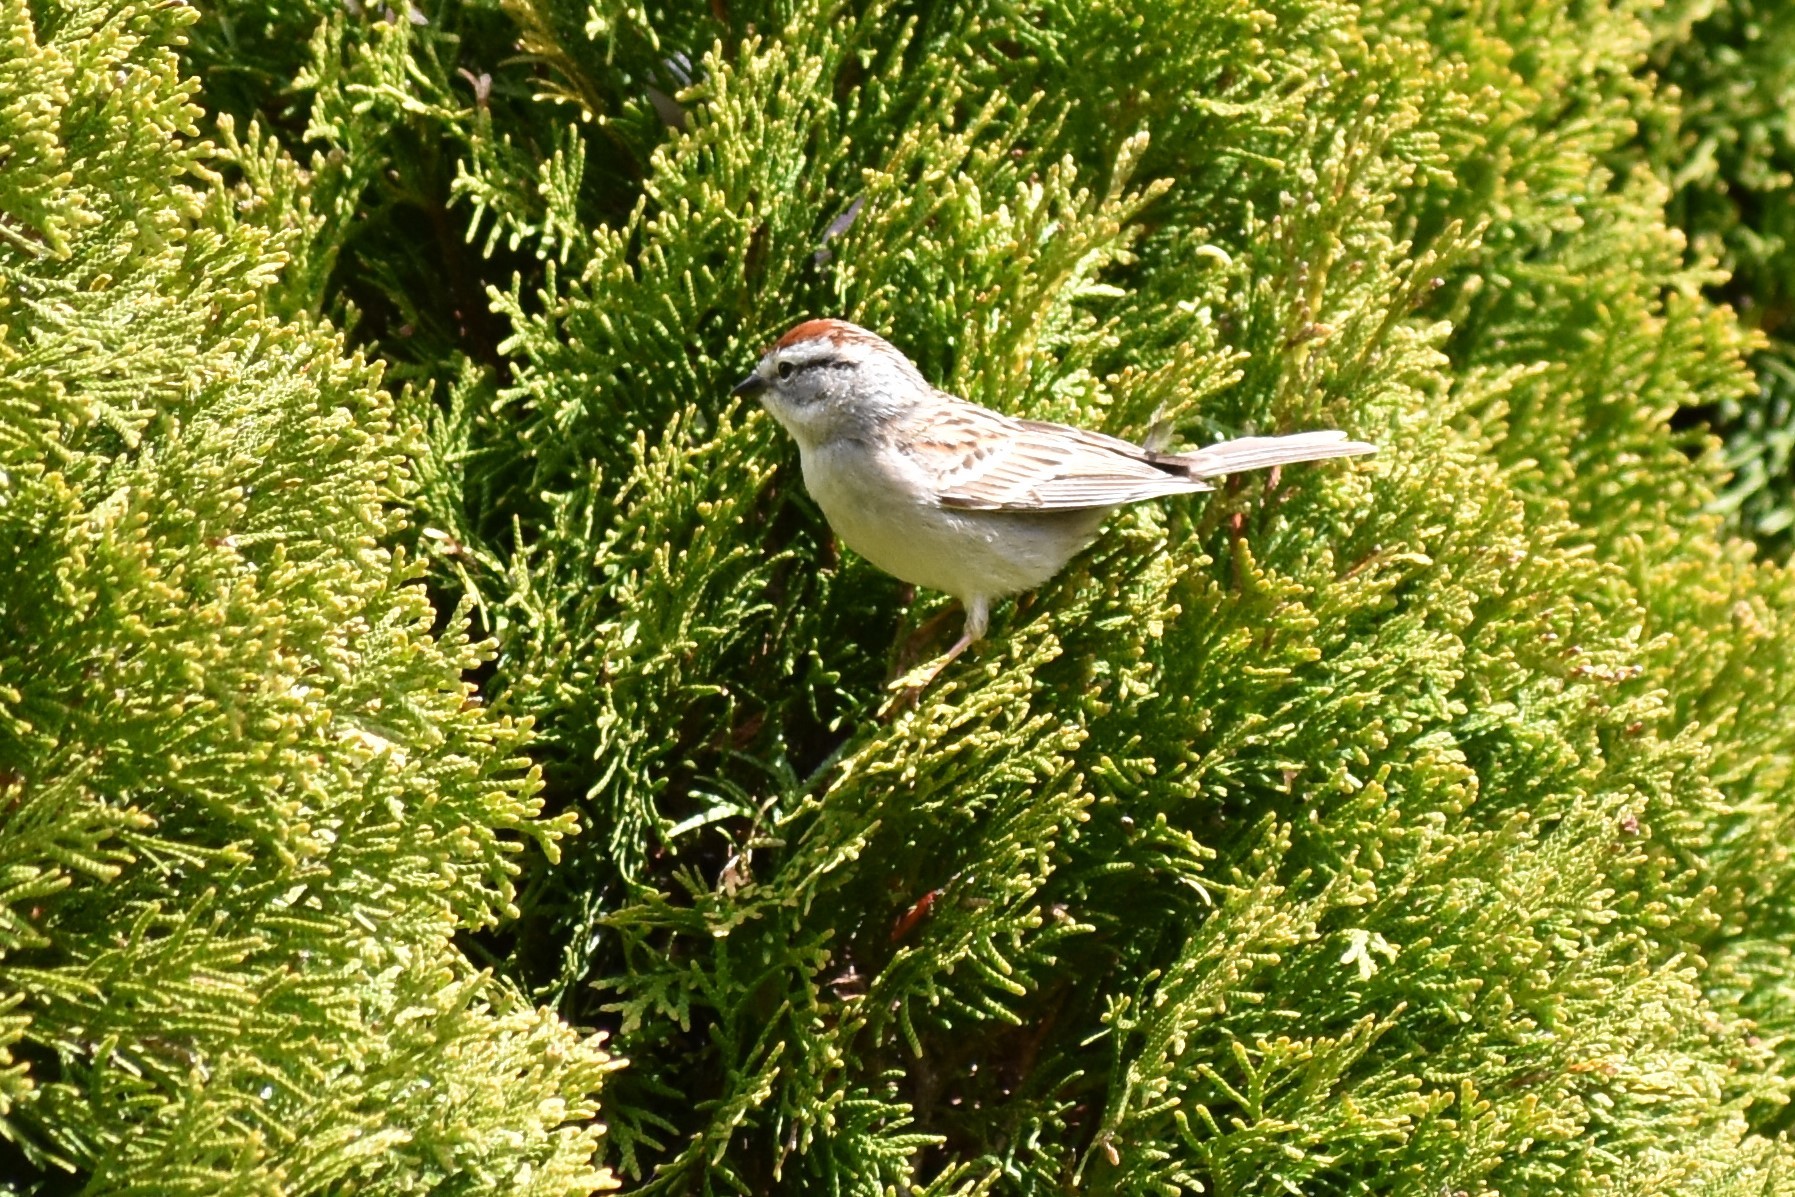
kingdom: Animalia
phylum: Chordata
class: Aves
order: Passeriformes
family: Passerellidae
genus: Spizella
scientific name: Spizella passerina
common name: Chipping sparrow
